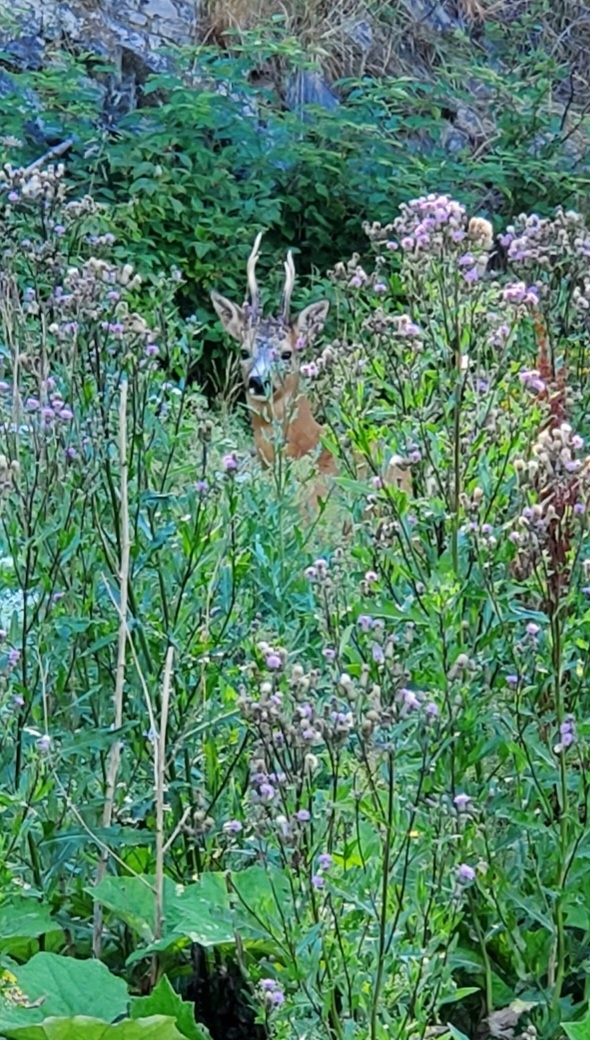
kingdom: Animalia
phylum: Chordata
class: Mammalia
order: Artiodactyla
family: Cervidae
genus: Capreolus
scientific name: Capreolus capreolus
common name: Western roe deer
